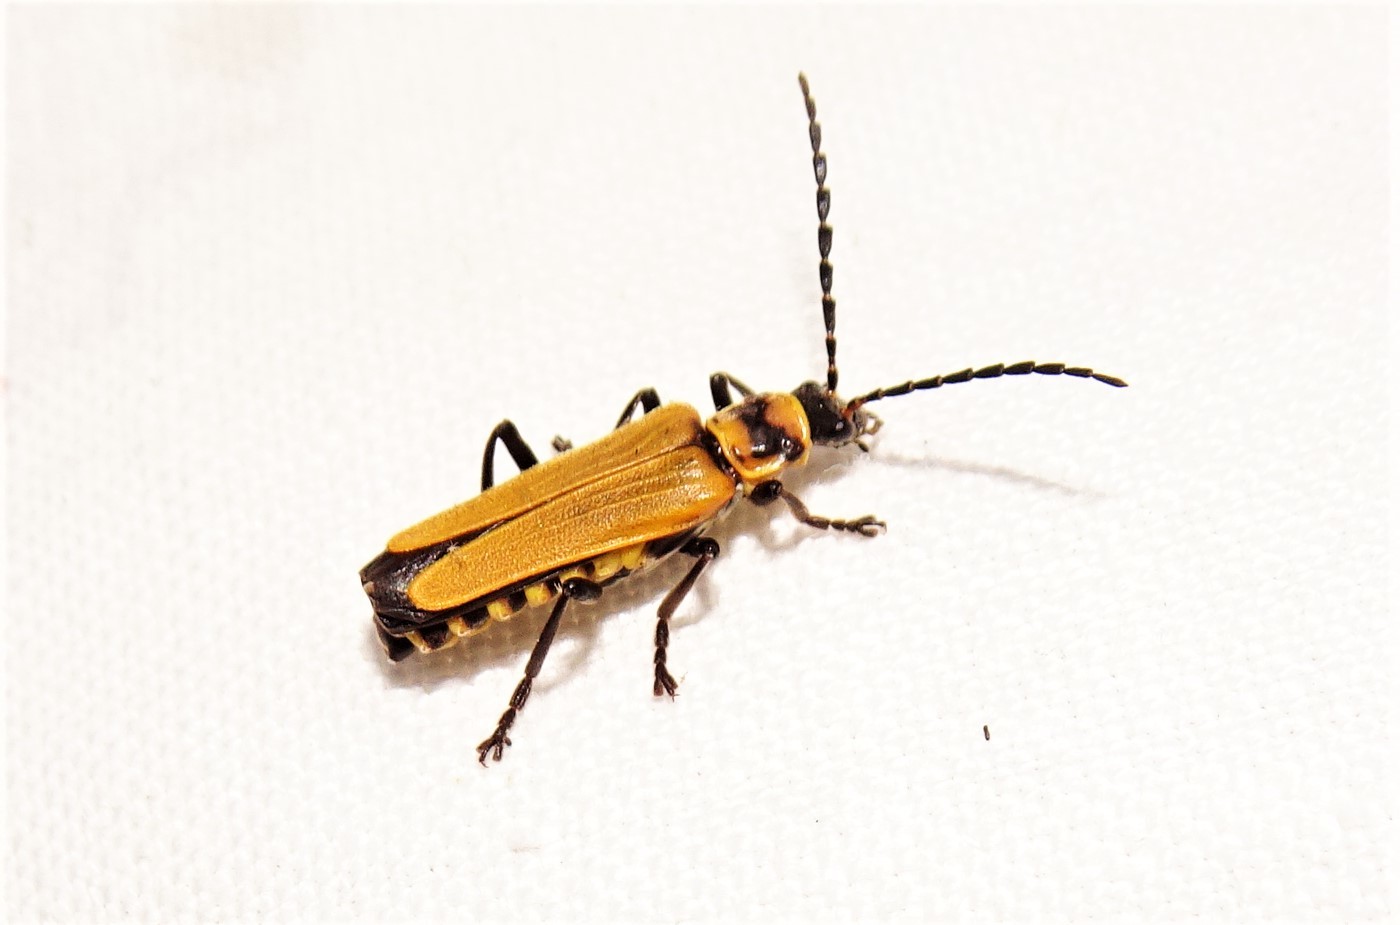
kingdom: Animalia
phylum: Arthropoda
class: Insecta
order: Coleoptera
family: Cantharidae
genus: Chauliognathus
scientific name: Chauliognathus
